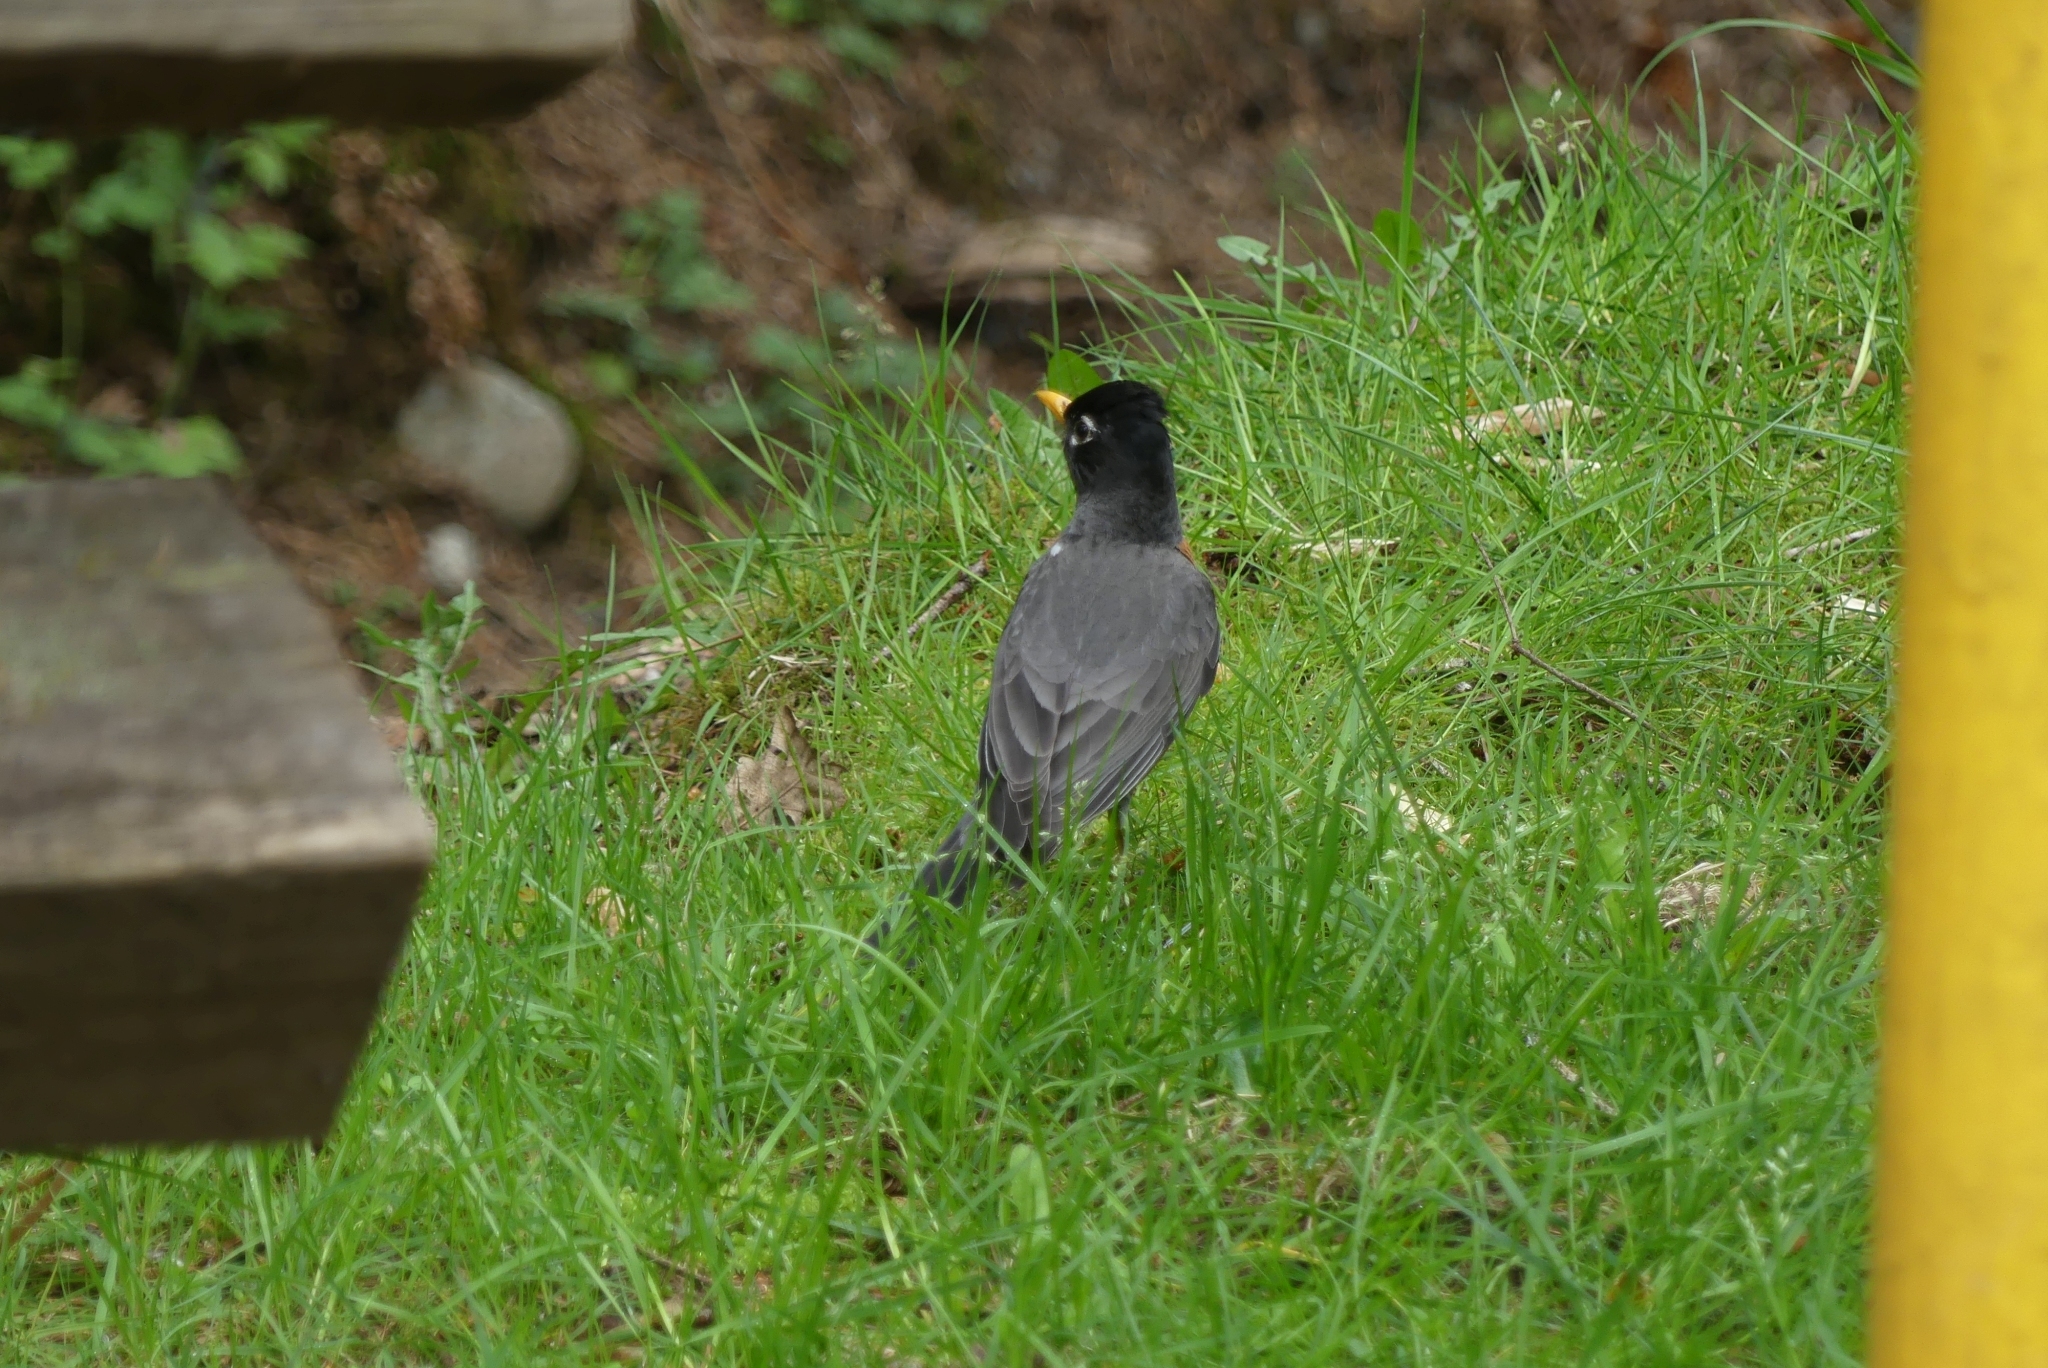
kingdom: Animalia
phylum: Chordata
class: Aves
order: Passeriformes
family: Turdidae
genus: Turdus
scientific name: Turdus migratorius
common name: American robin
